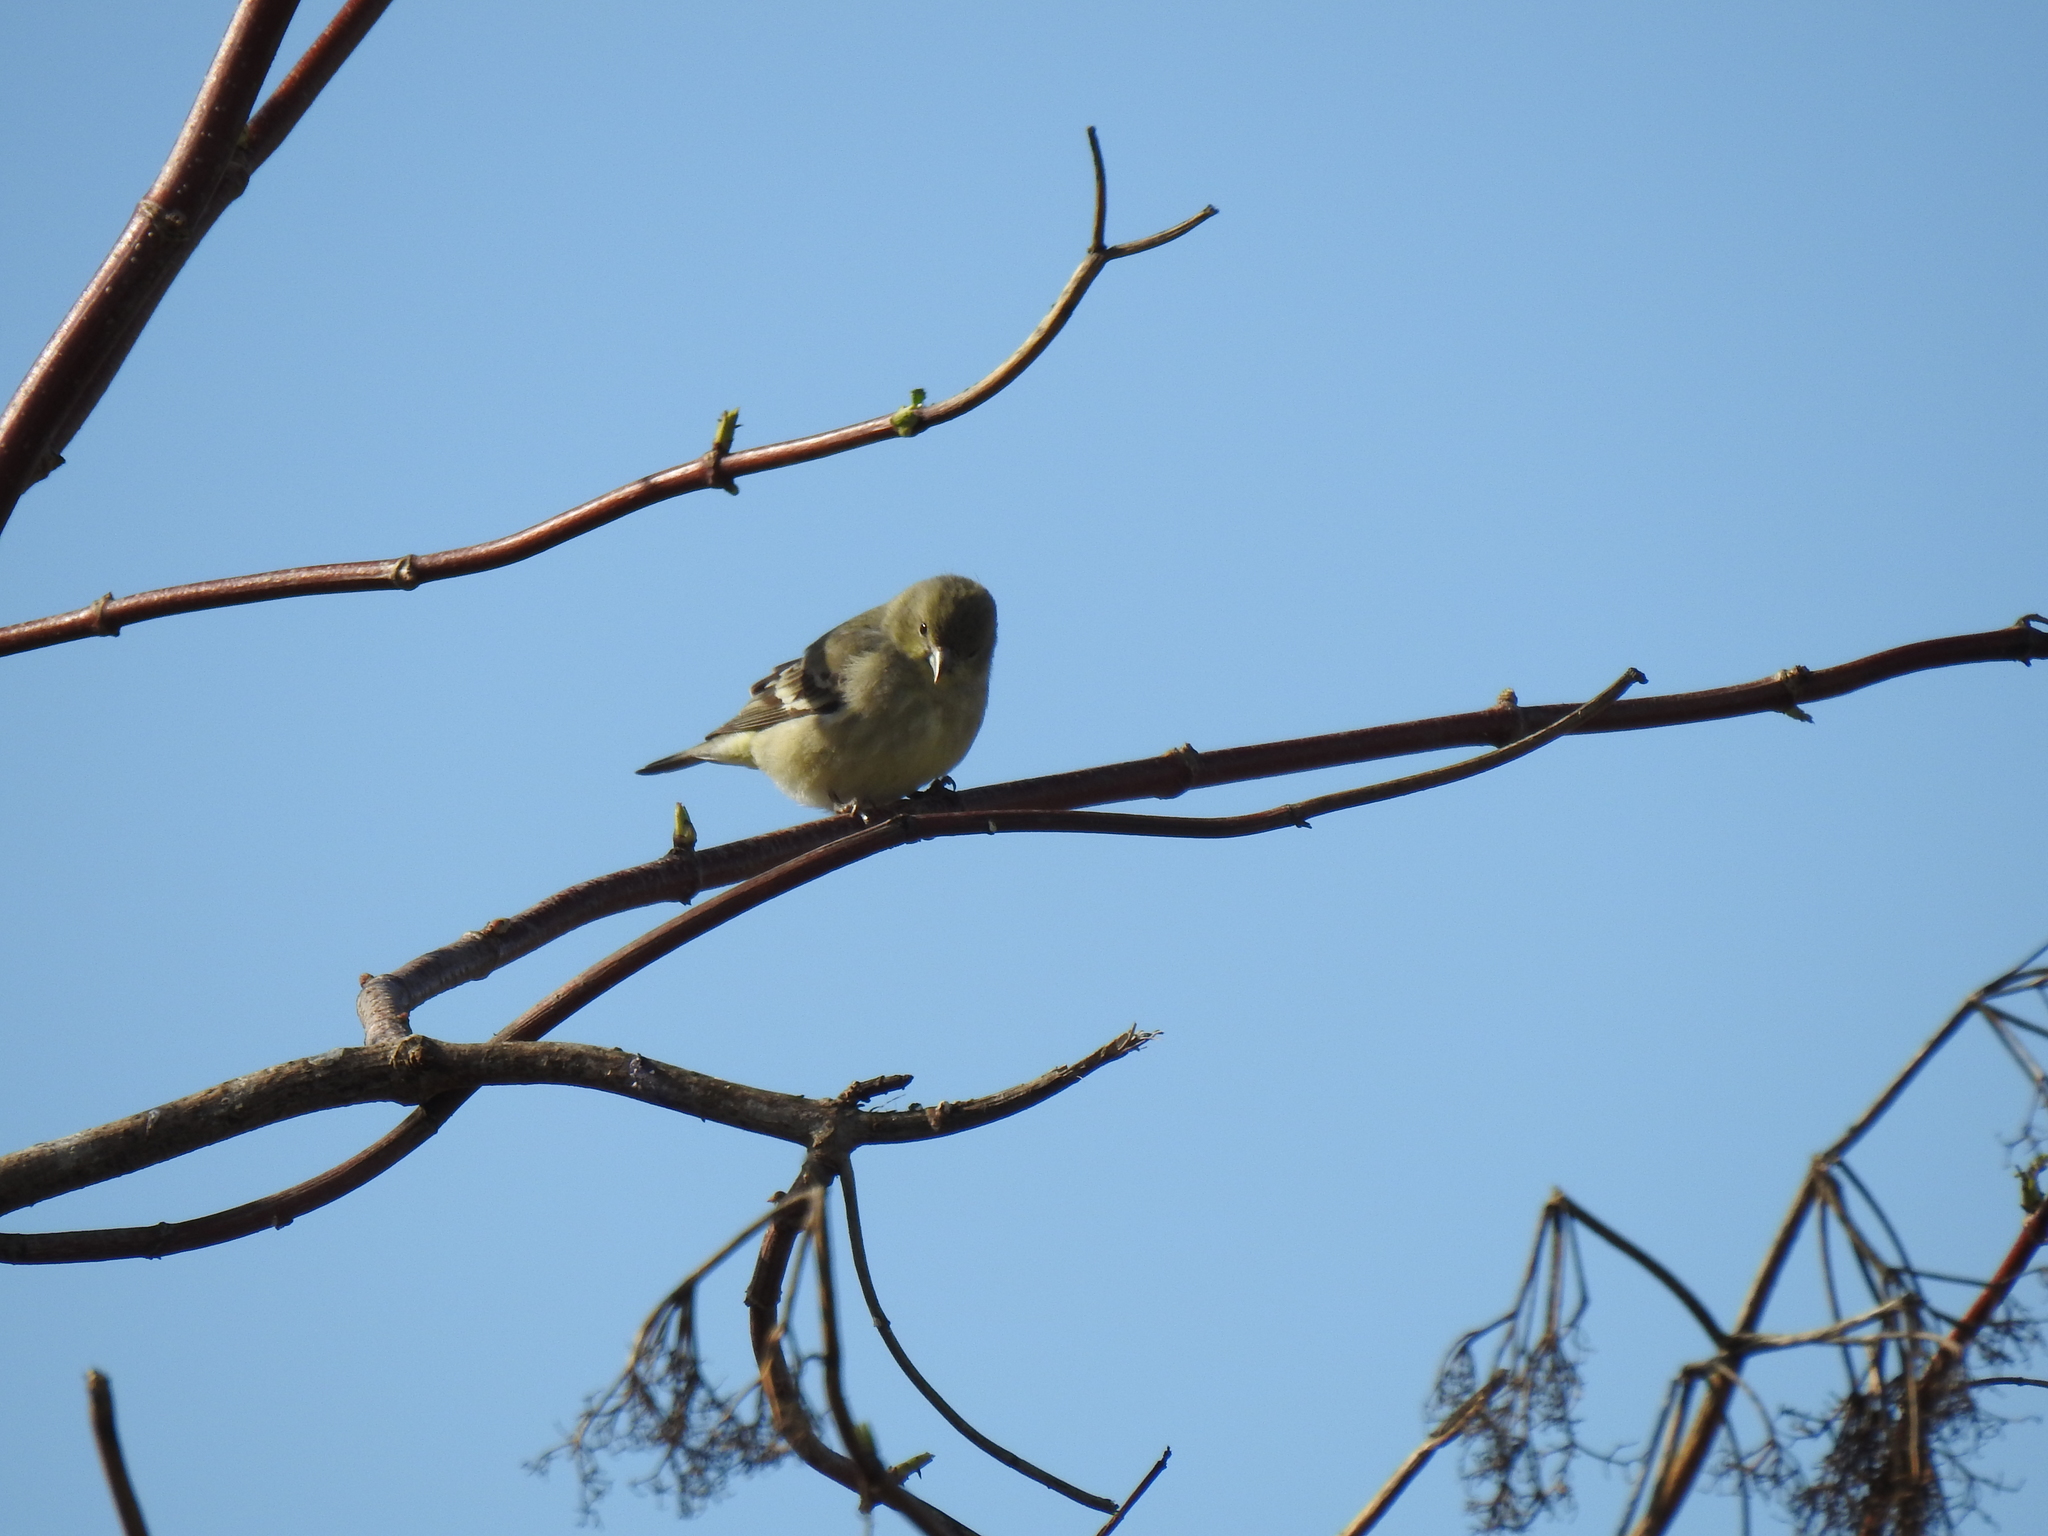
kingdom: Animalia
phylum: Chordata
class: Aves
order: Passeriformes
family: Fringillidae
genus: Spinus
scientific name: Spinus psaltria
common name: Lesser goldfinch
